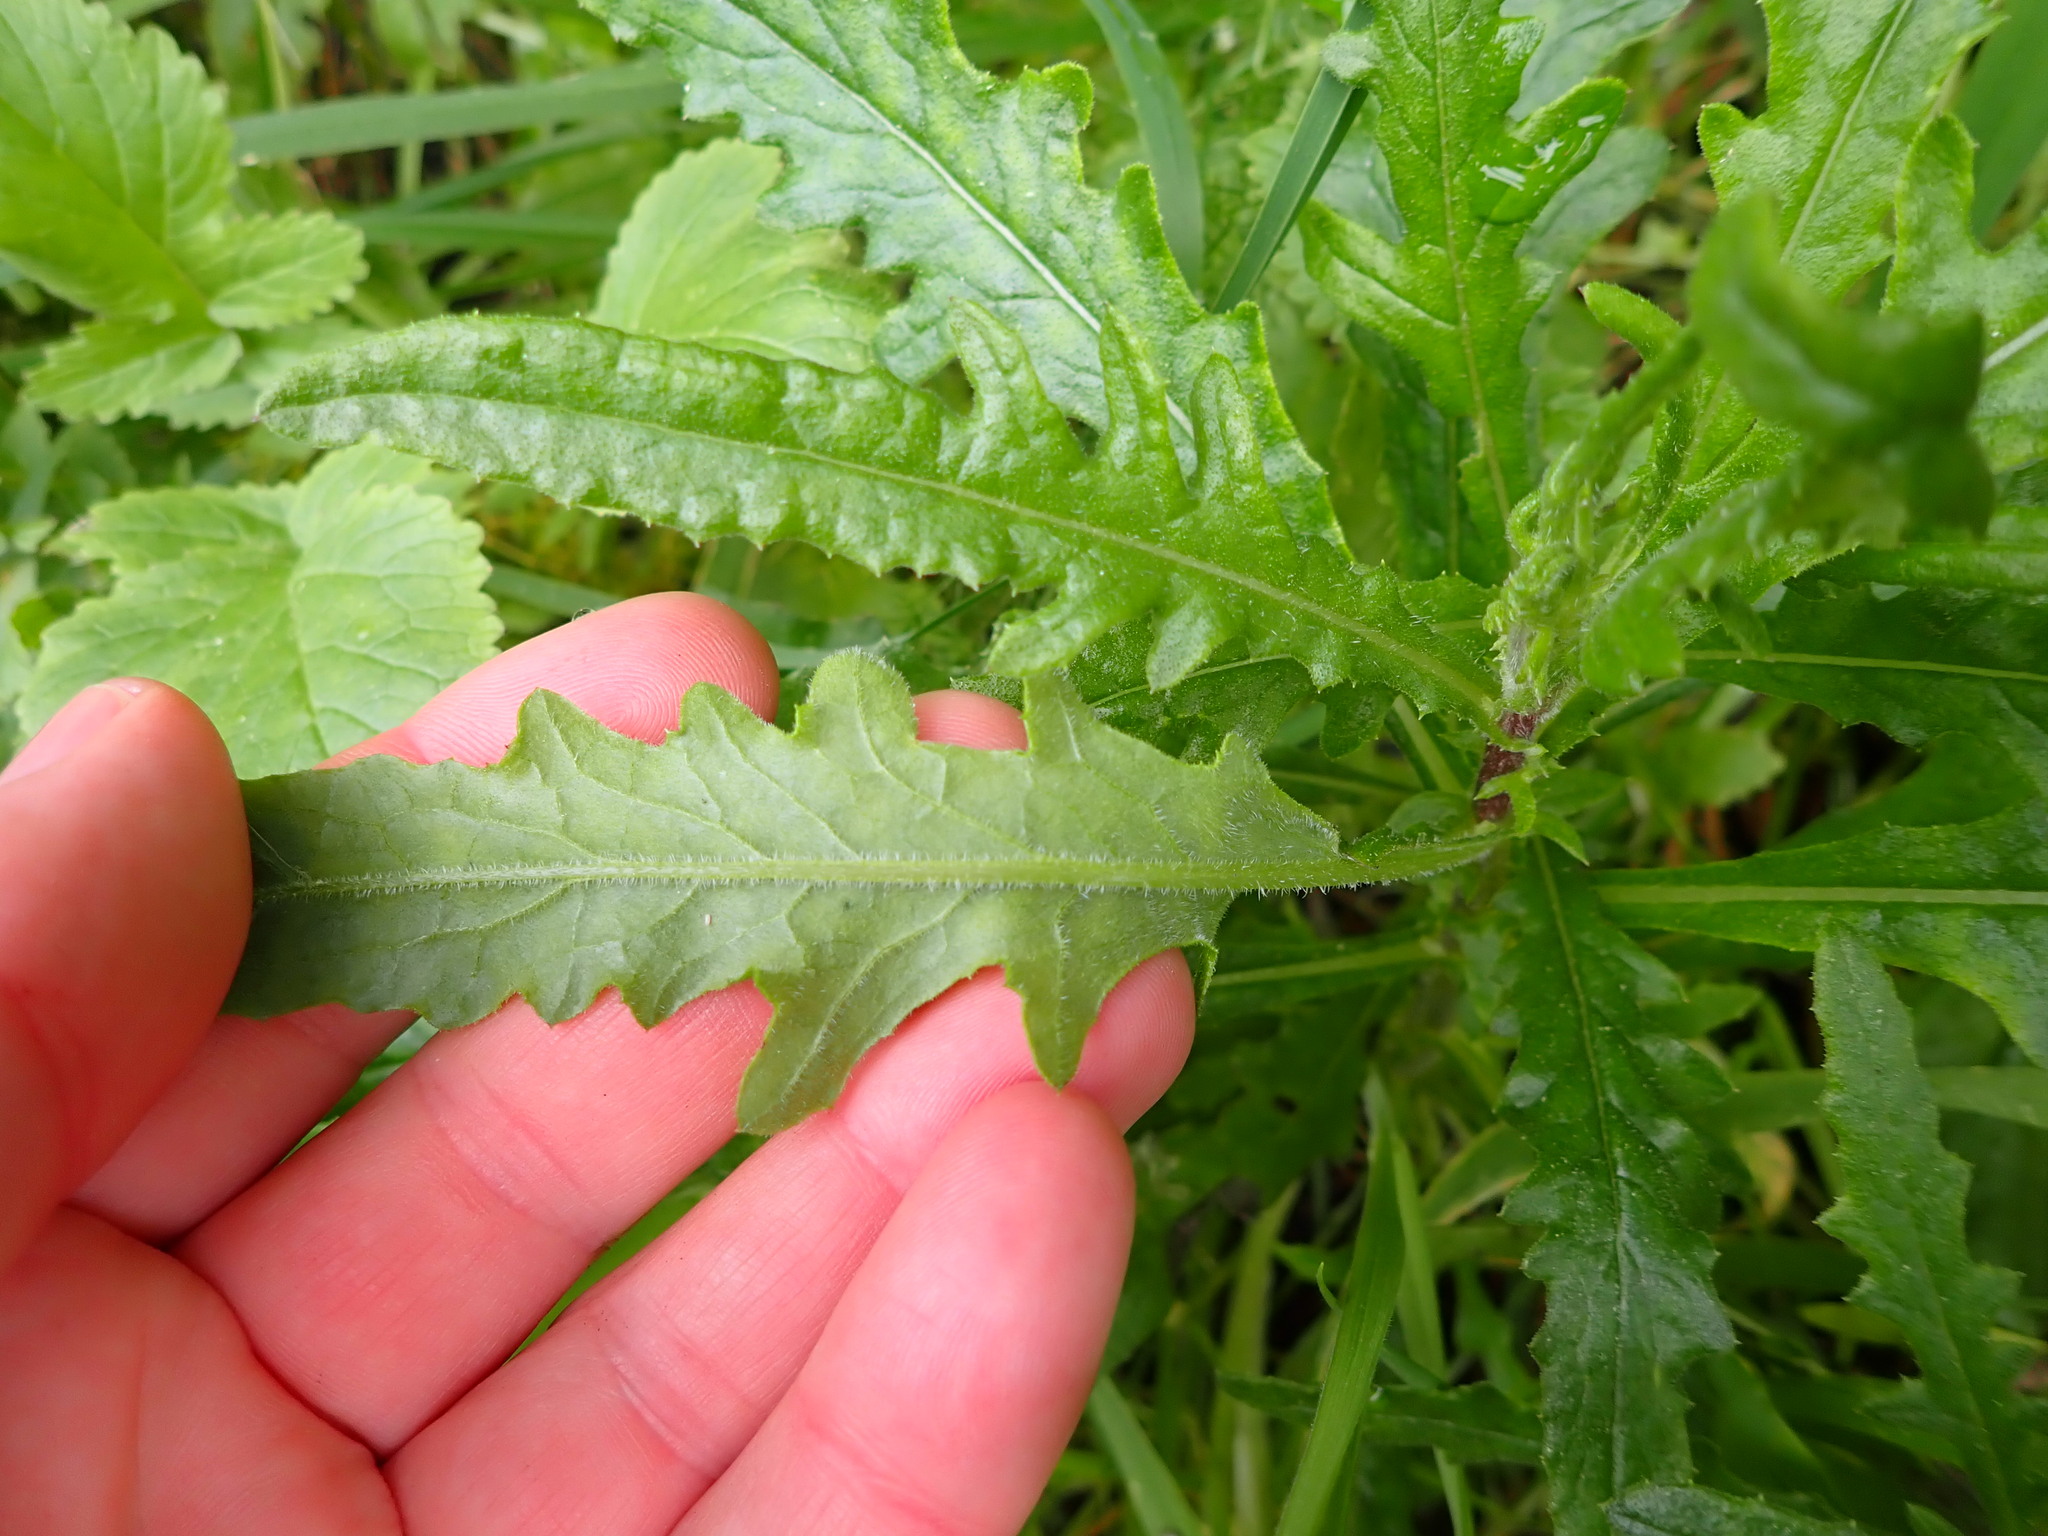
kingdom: Plantae
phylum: Tracheophyta
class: Magnoliopsida
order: Asterales
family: Asteraceae
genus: Senecio
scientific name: Senecio hispidulus
